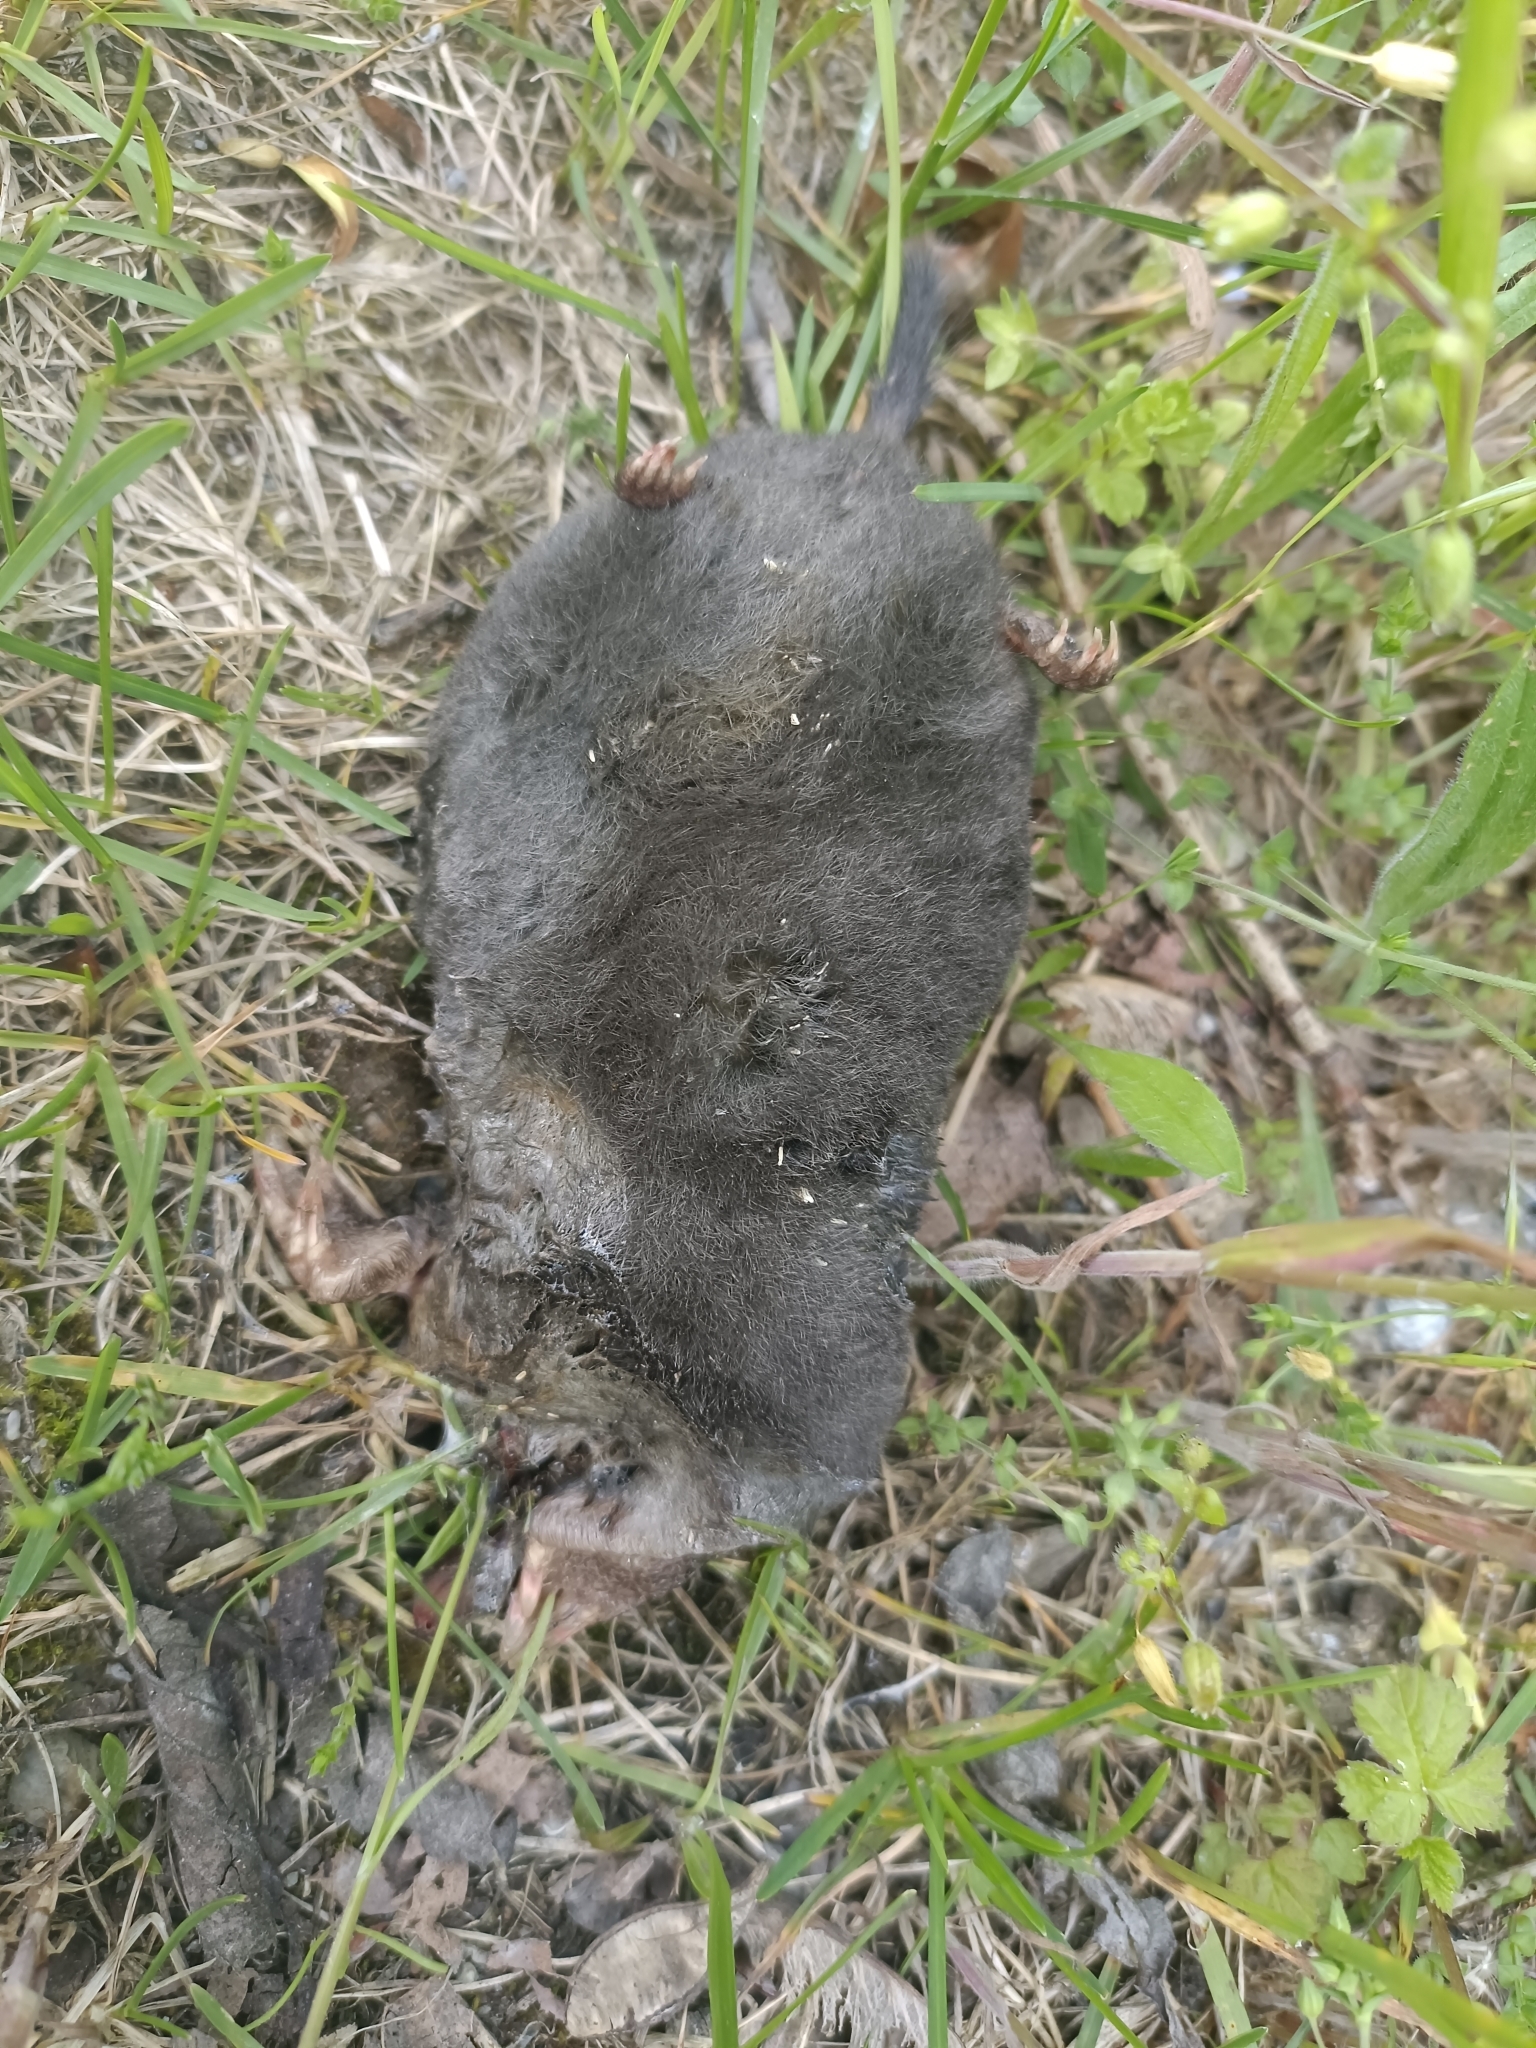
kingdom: Animalia
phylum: Chordata
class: Mammalia
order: Soricomorpha
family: Talpidae
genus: Talpa
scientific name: Talpa europaea
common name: European mole
